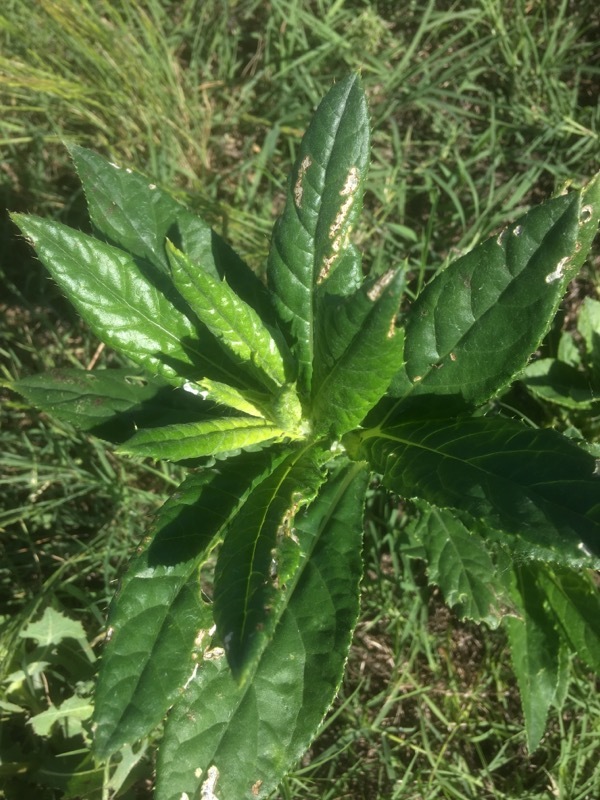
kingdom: Plantae
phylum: Tracheophyta
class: Magnoliopsida
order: Asterales
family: Asteraceae
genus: Cirsium
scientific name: Cirsium altissimum
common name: Roadside thistle
